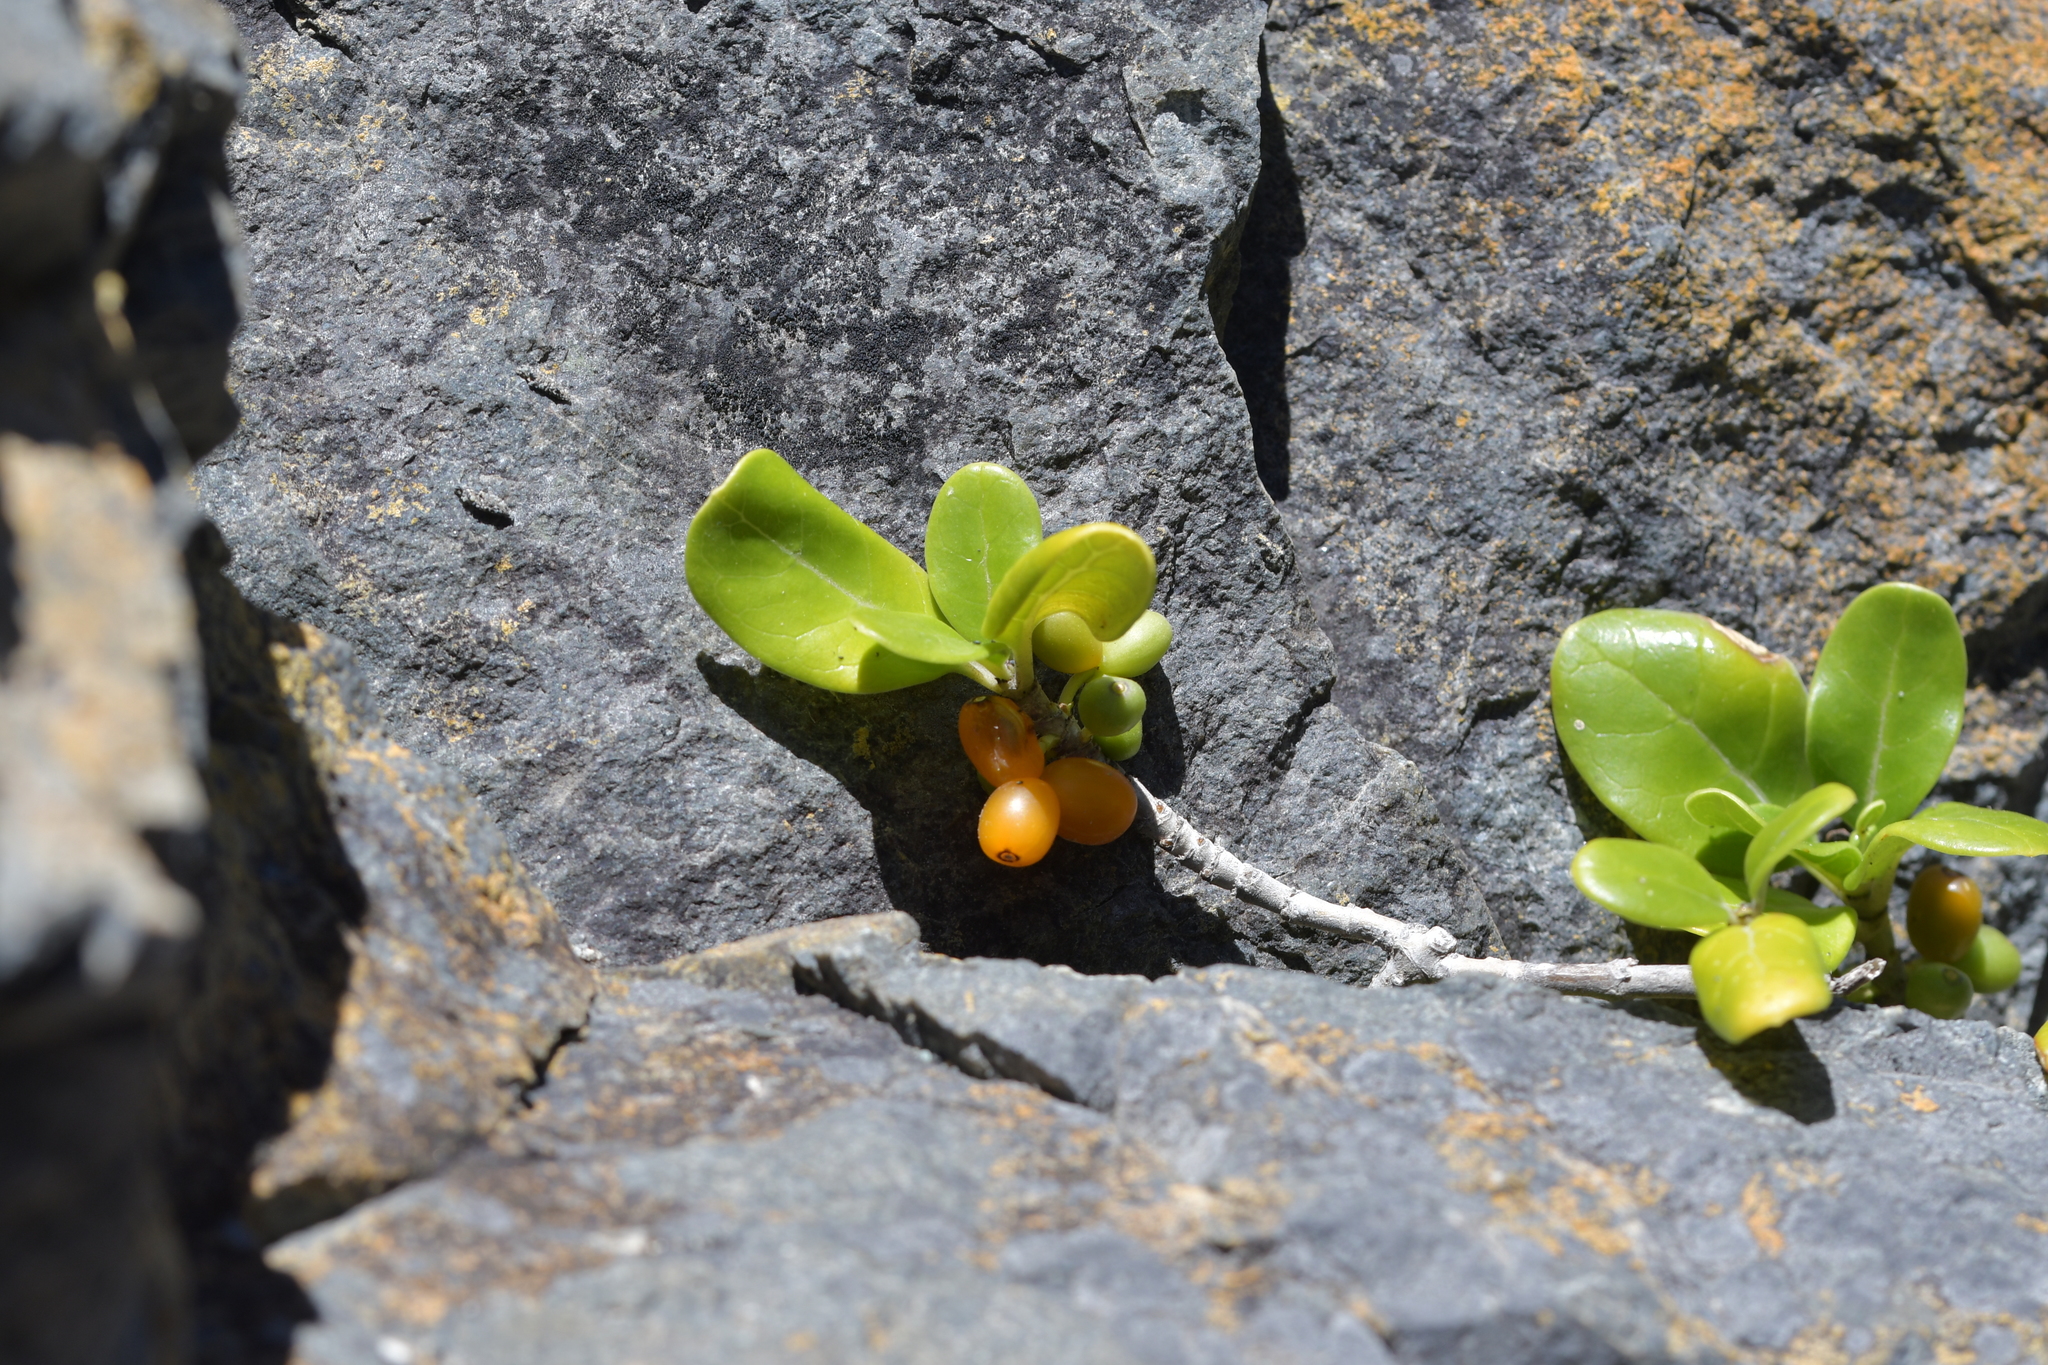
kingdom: Plantae
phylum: Tracheophyta
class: Magnoliopsida
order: Gentianales
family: Rubiaceae
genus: Coprosma
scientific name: Coprosma repens
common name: Tree bedstraw
